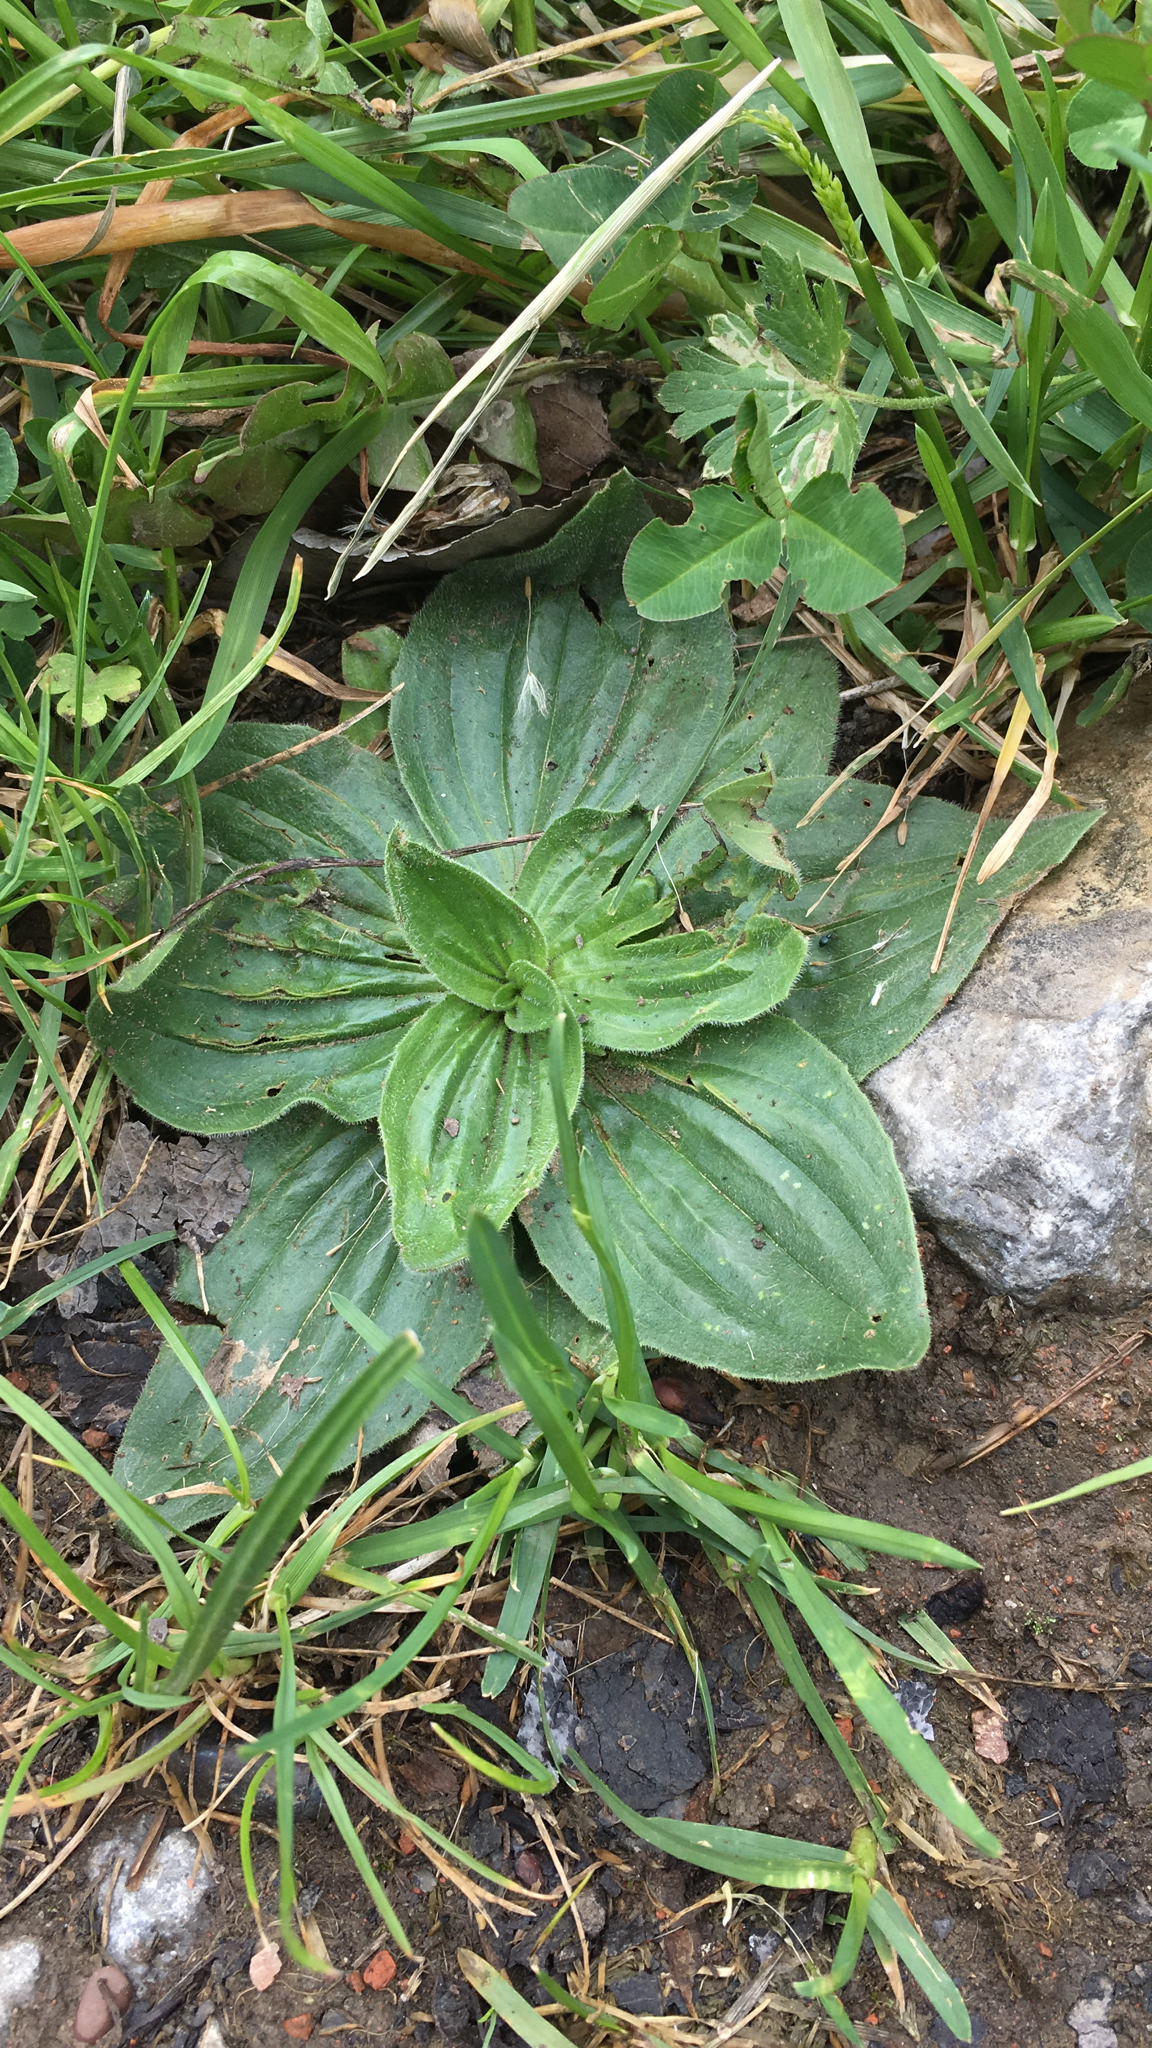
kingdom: Plantae
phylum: Tracheophyta
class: Magnoliopsida
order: Lamiales
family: Plantaginaceae
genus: Plantago
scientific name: Plantago media
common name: Hoary plantain
